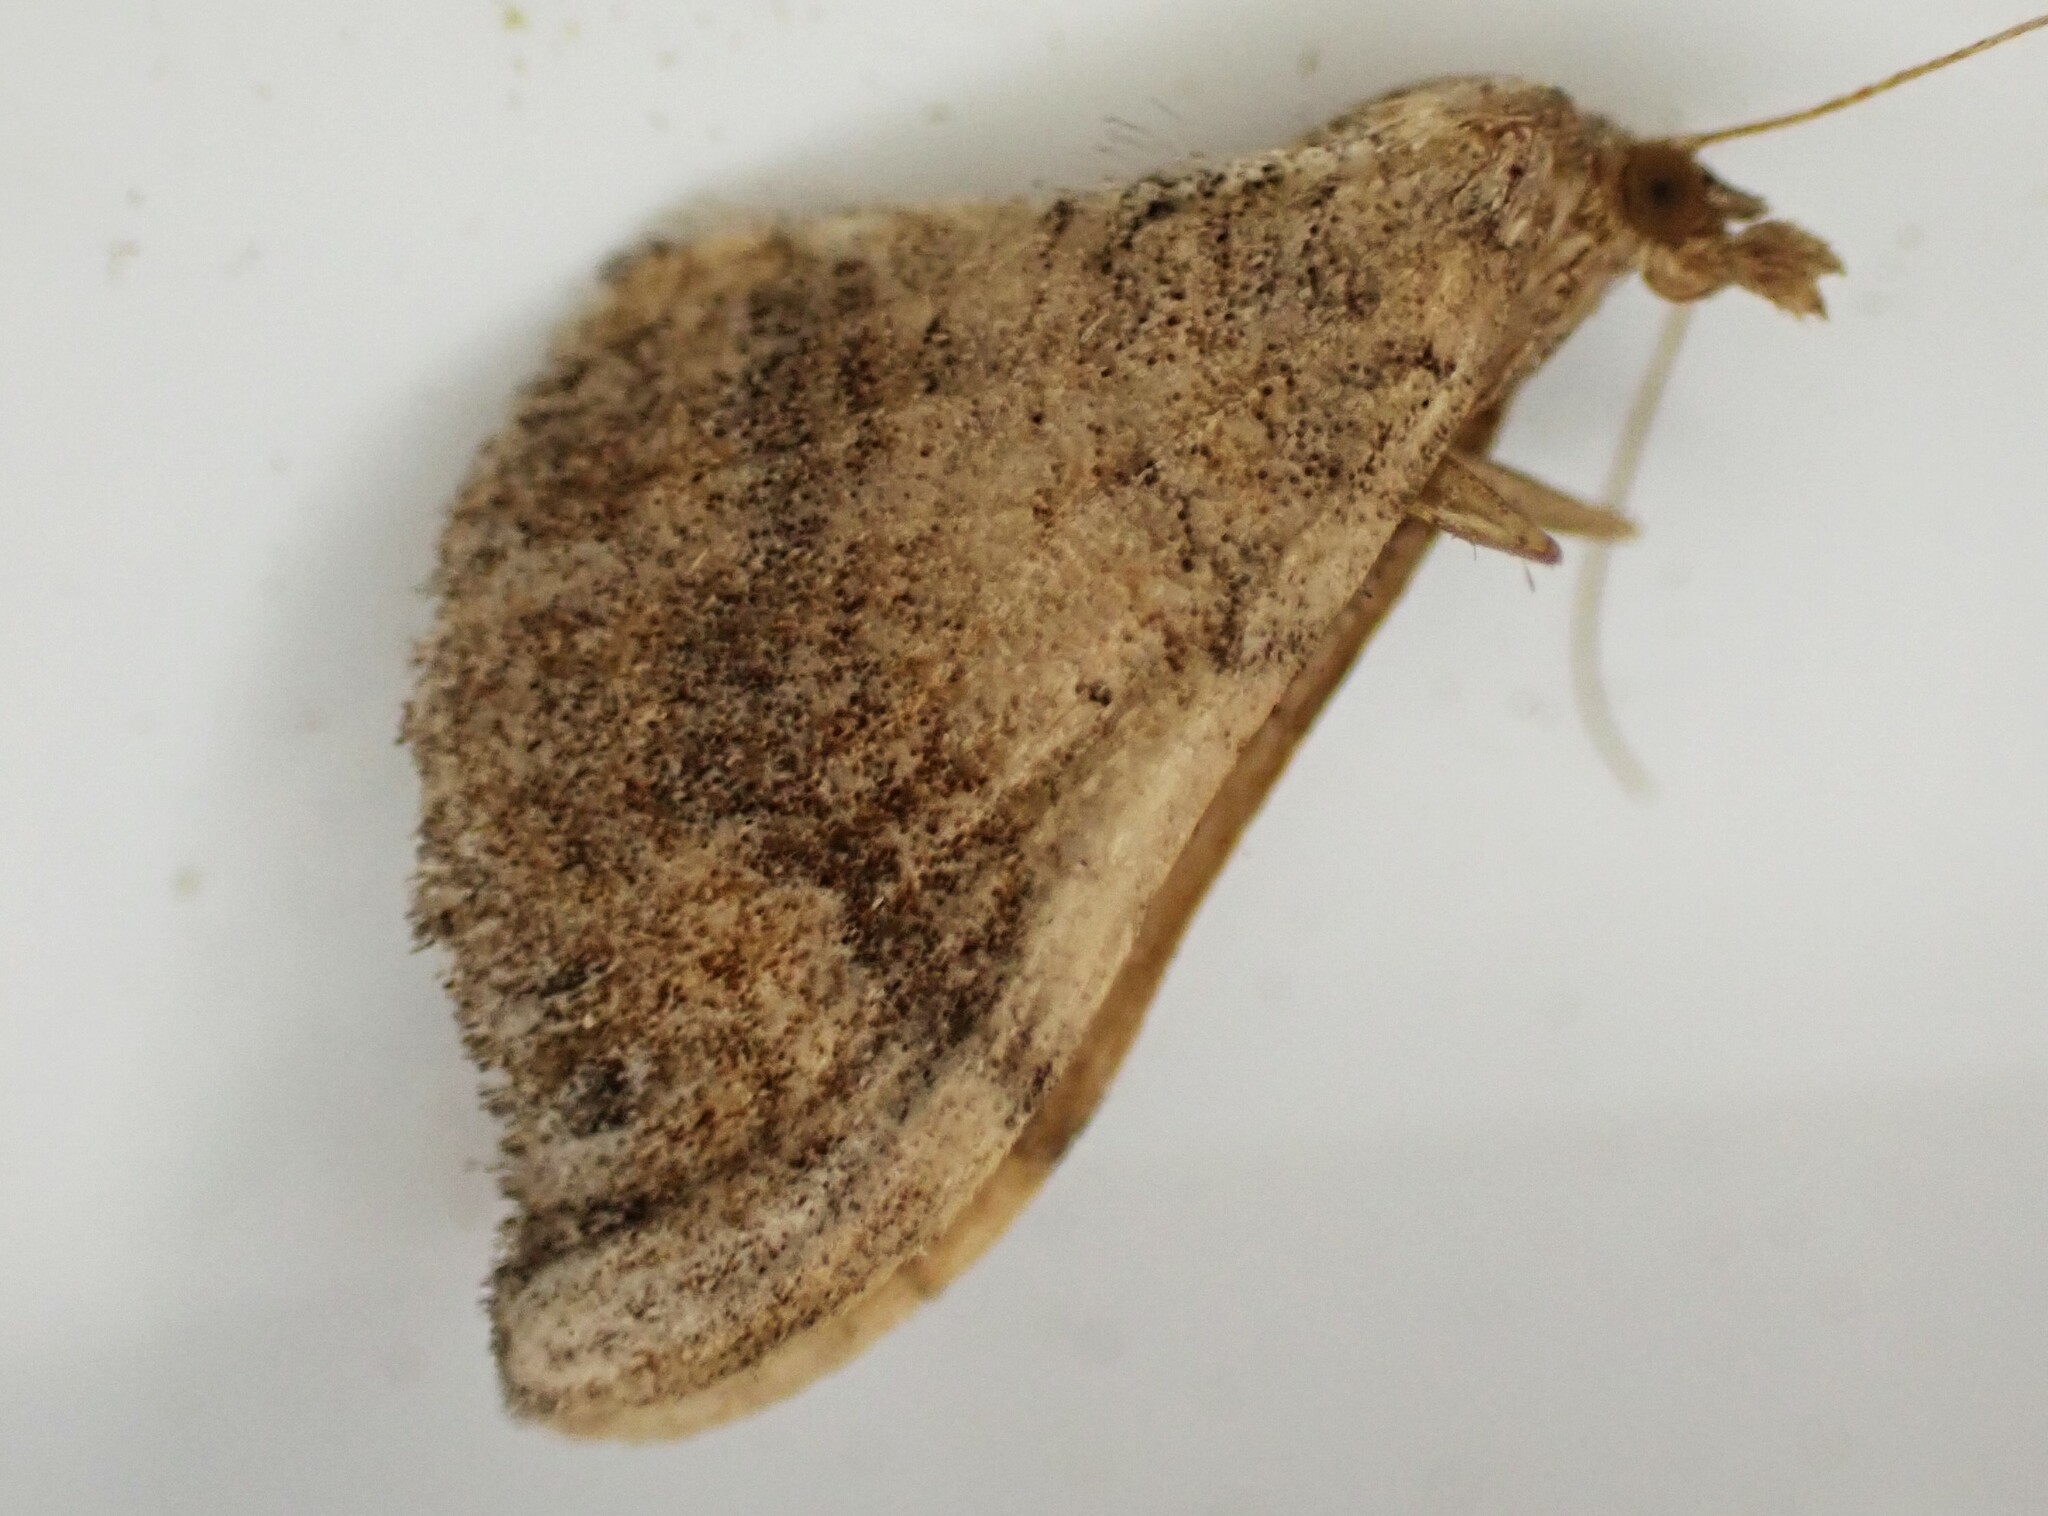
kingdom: Animalia
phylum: Arthropoda
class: Insecta
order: Lepidoptera
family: Geometridae
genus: Homodotis
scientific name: Homodotis megaspilata
